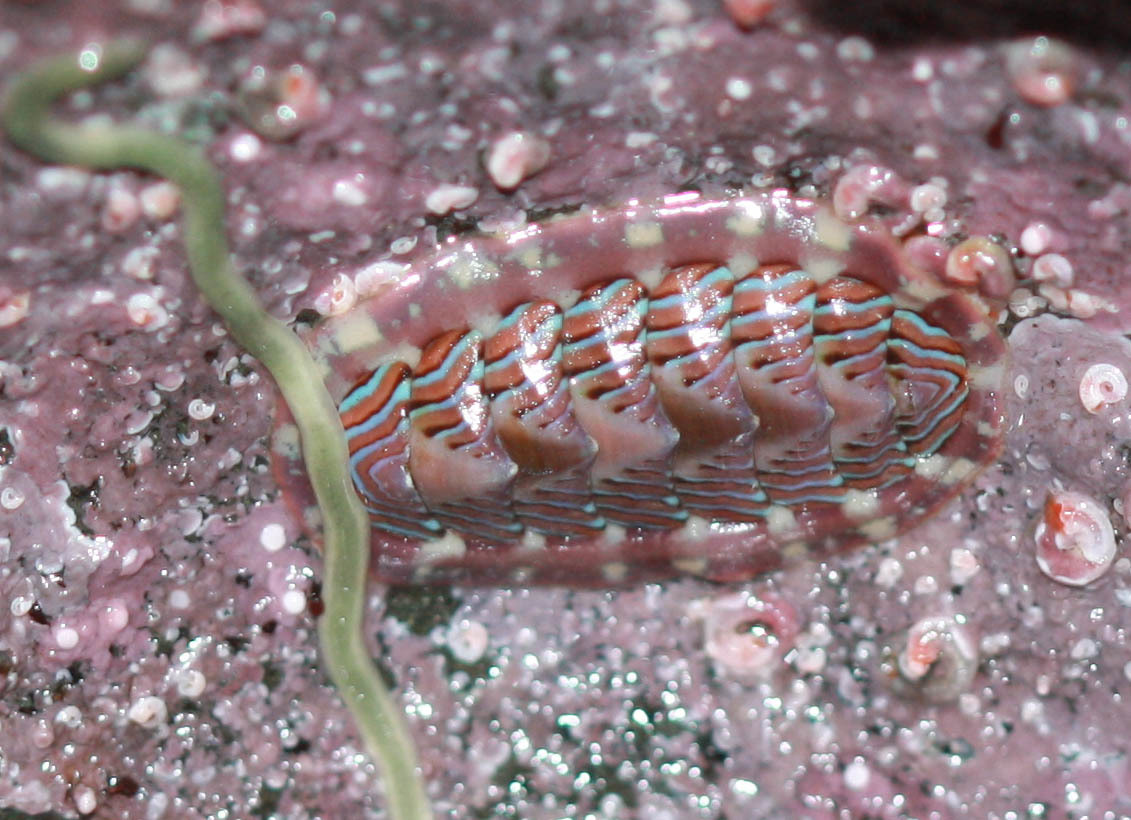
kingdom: Animalia
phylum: Mollusca
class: Polyplacophora
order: Chitonida
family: Tonicellidae
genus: Tonicella
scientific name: Tonicella lineata
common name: Lined chiton
